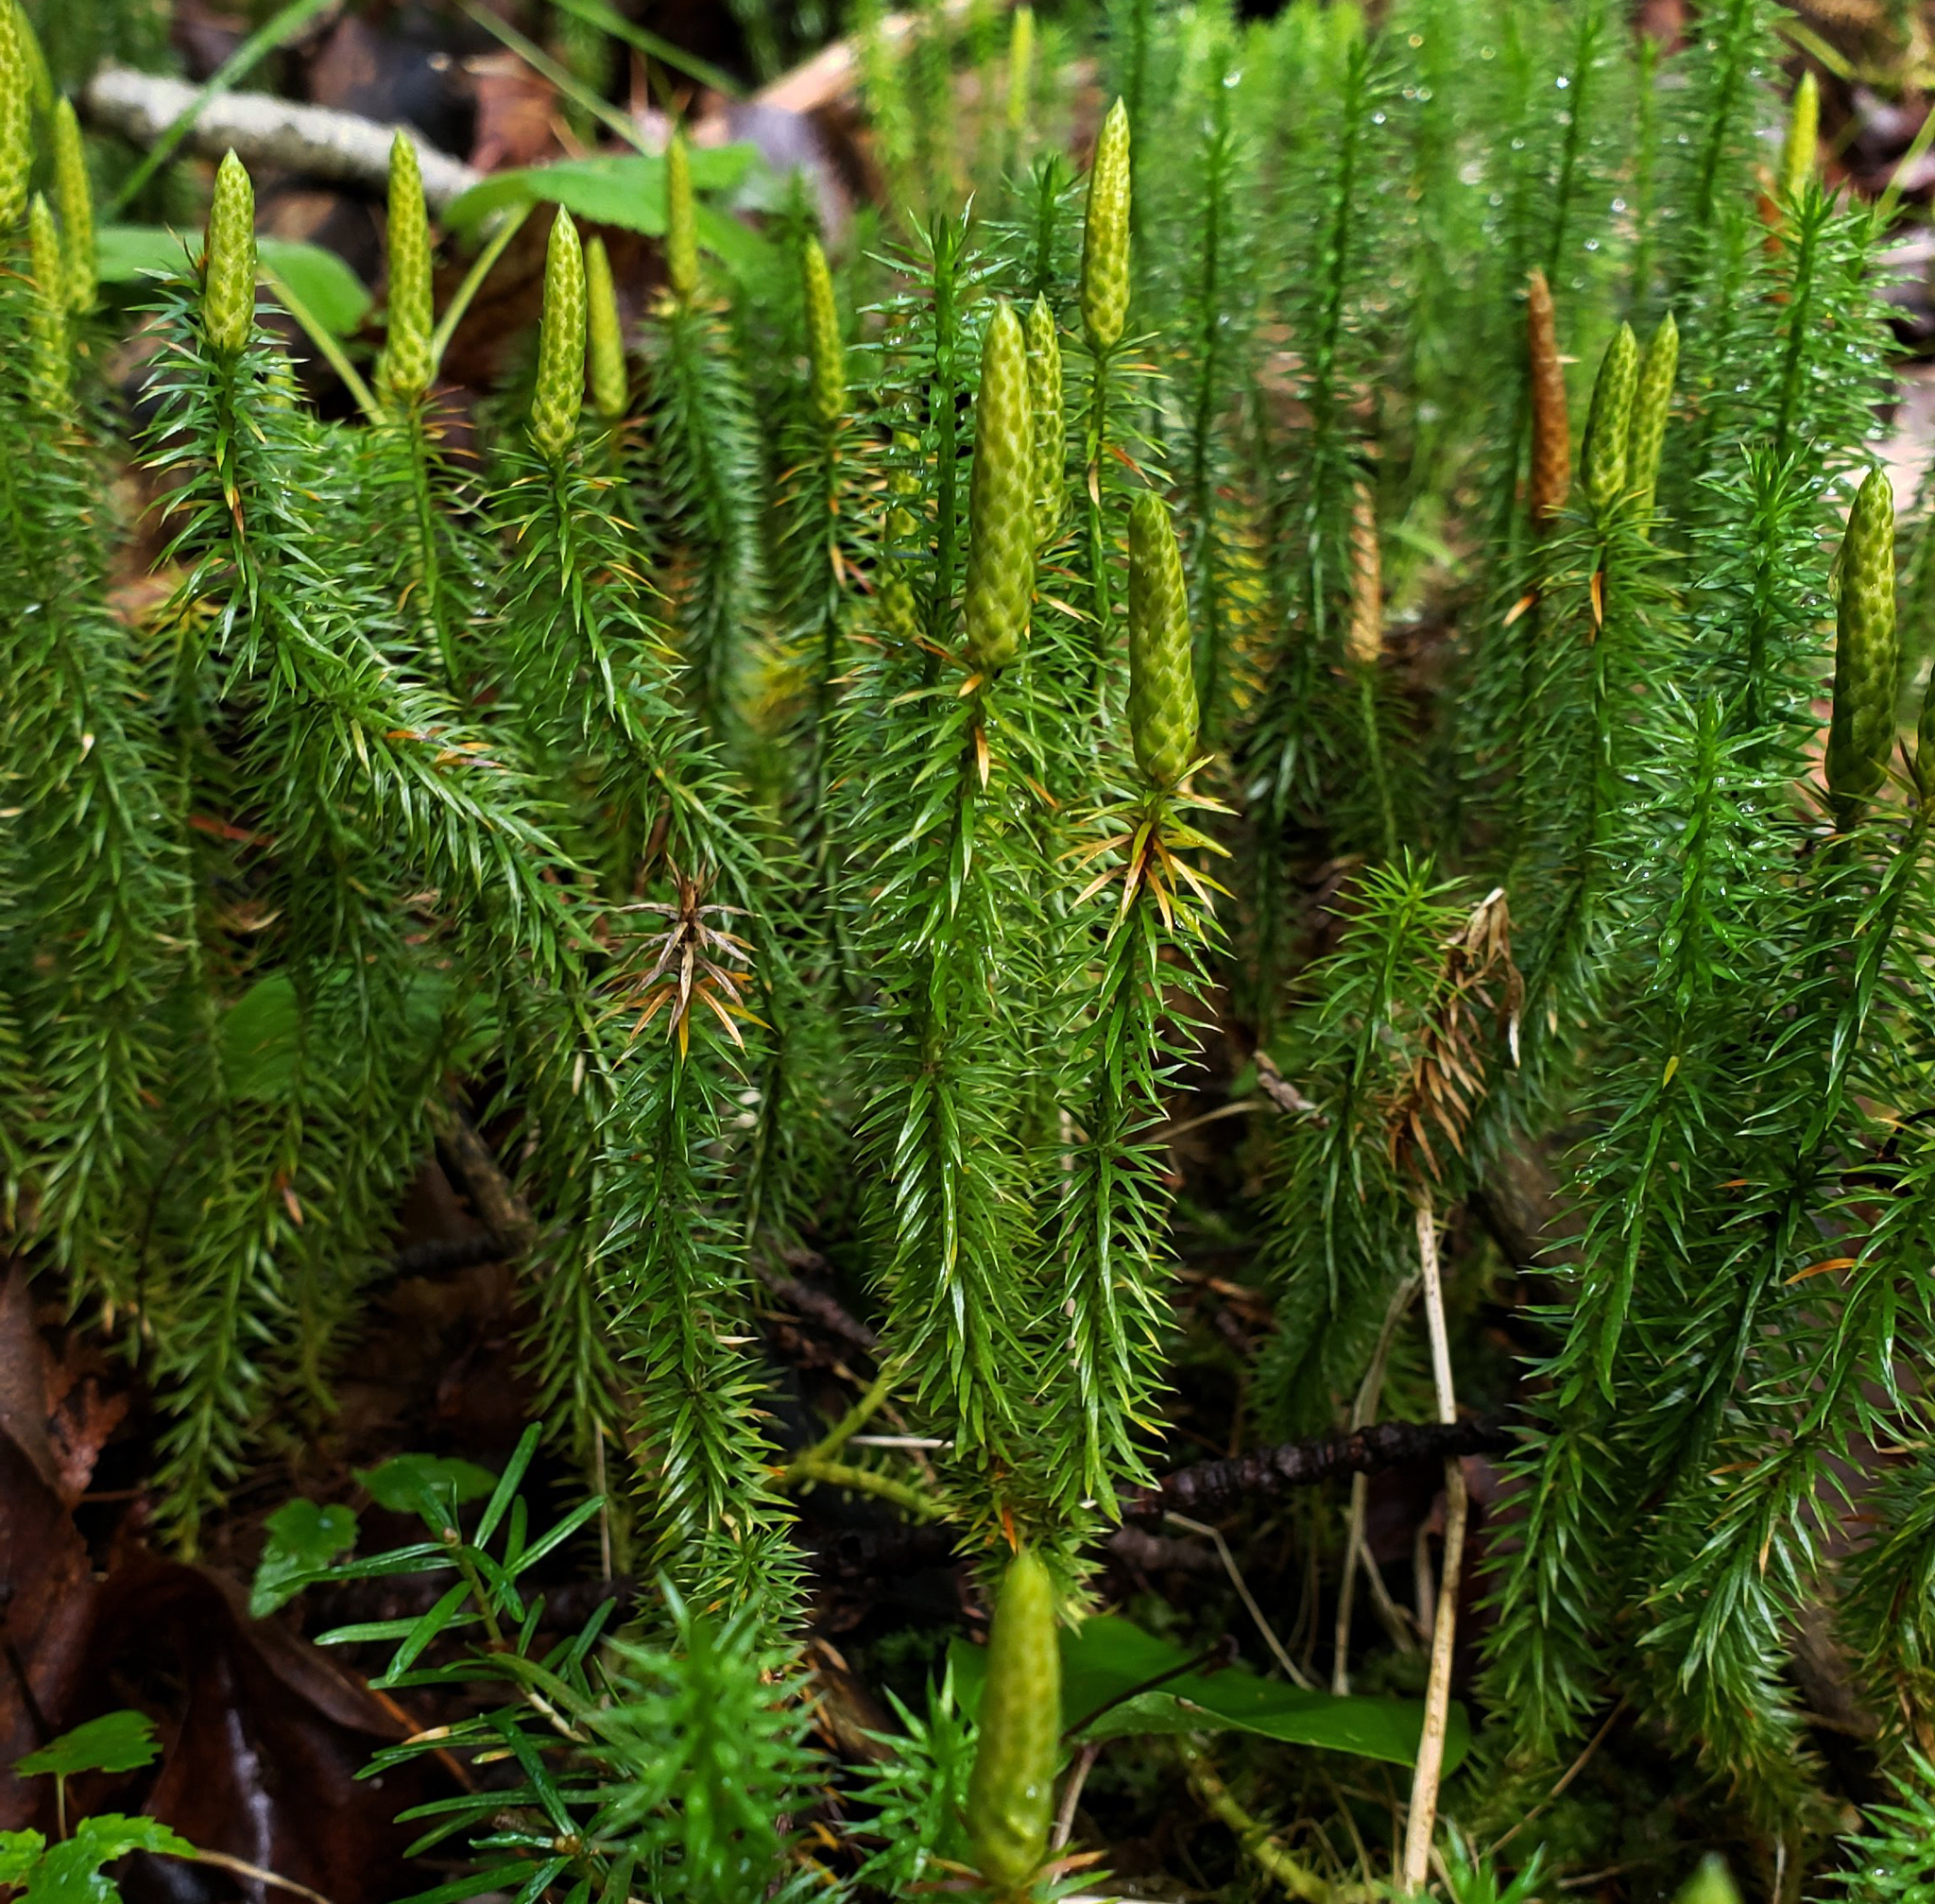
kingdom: Plantae
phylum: Tracheophyta
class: Lycopodiopsida
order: Lycopodiales
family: Lycopodiaceae
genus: Spinulum
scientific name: Spinulum annotinum
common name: Interrupted club-moss
